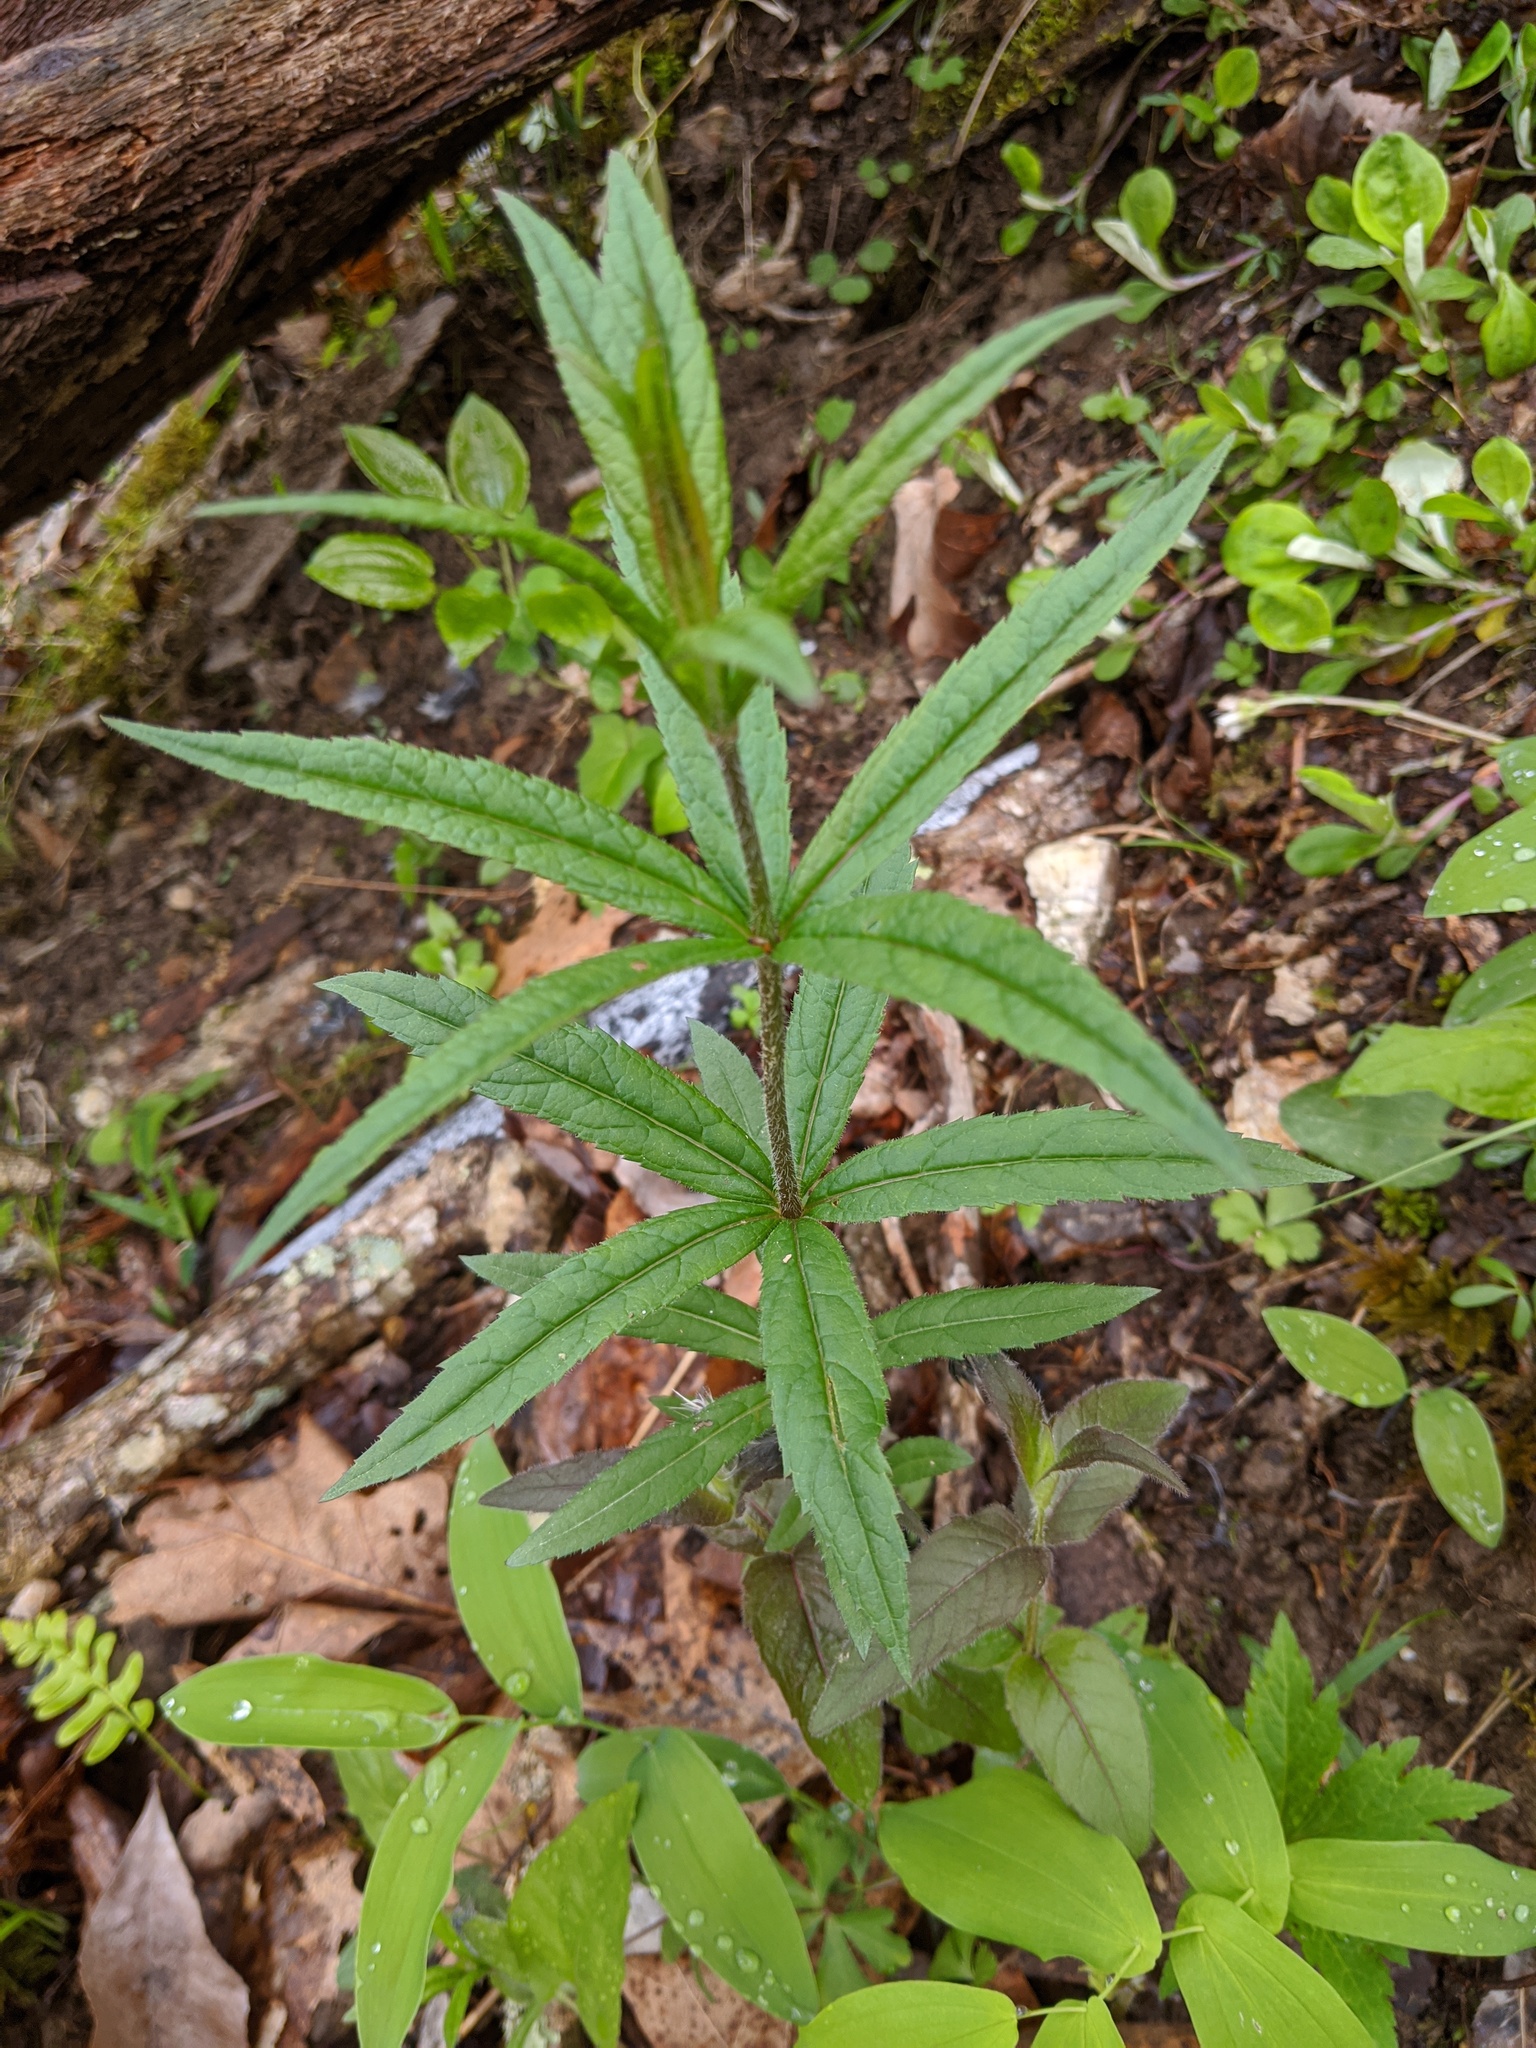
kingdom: Plantae
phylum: Tracheophyta
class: Magnoliopsida
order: Lamiales
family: Plantaginaceae
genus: Veronicastrum
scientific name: Veronicastrum virginicum
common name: Blackroot
